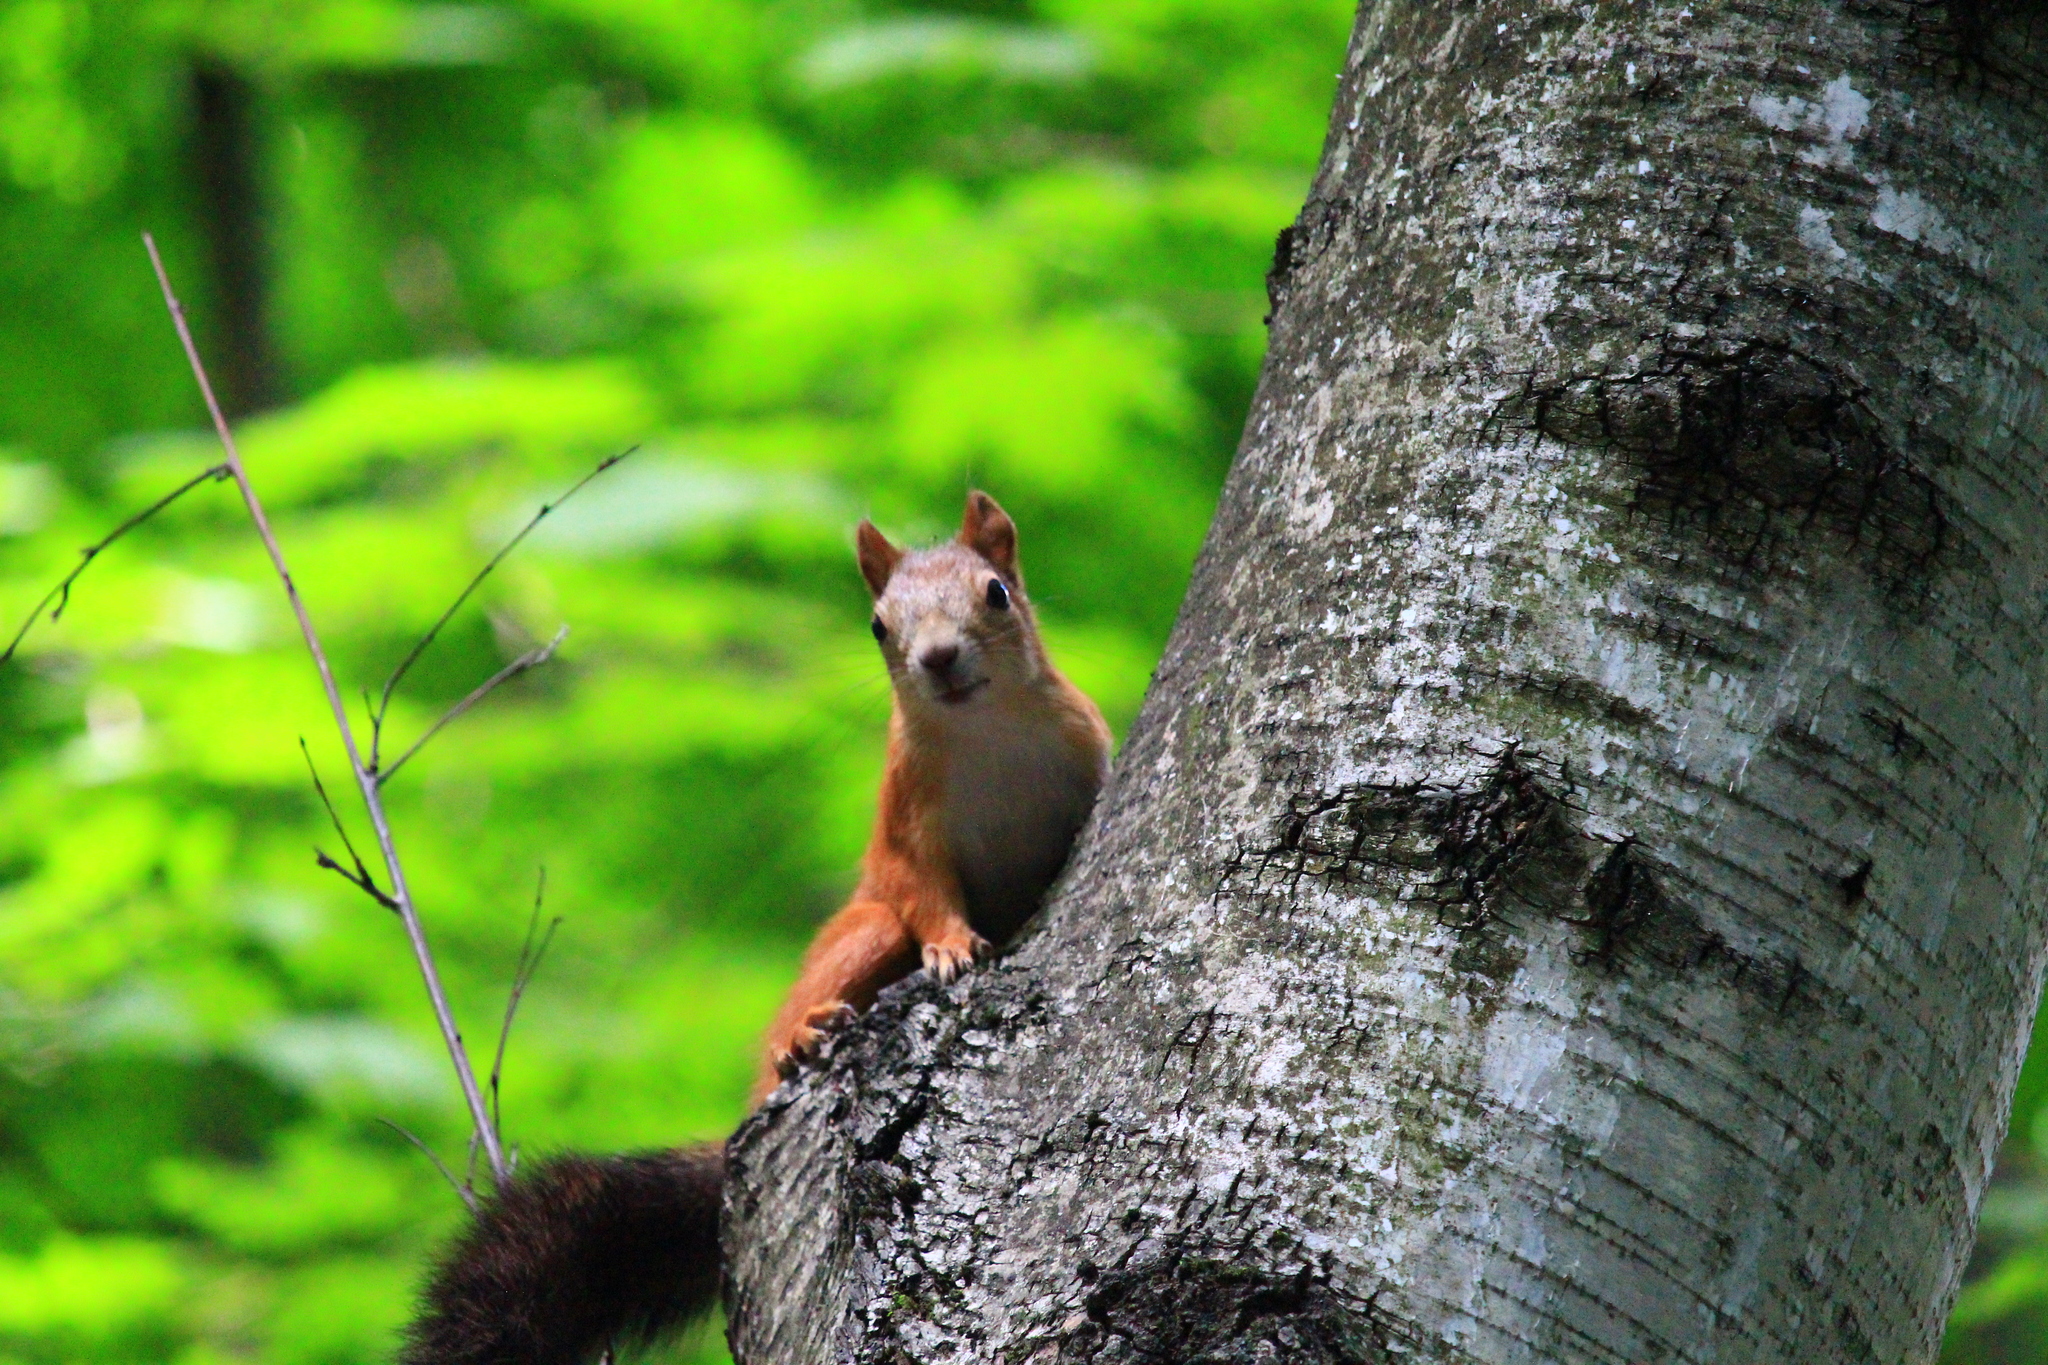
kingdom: Animalia
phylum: Chordata
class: Mammalia
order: Rodentia
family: Sciuridae
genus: Sciurus
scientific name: Sciurus vulgaris
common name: Eurasian red squirrel
